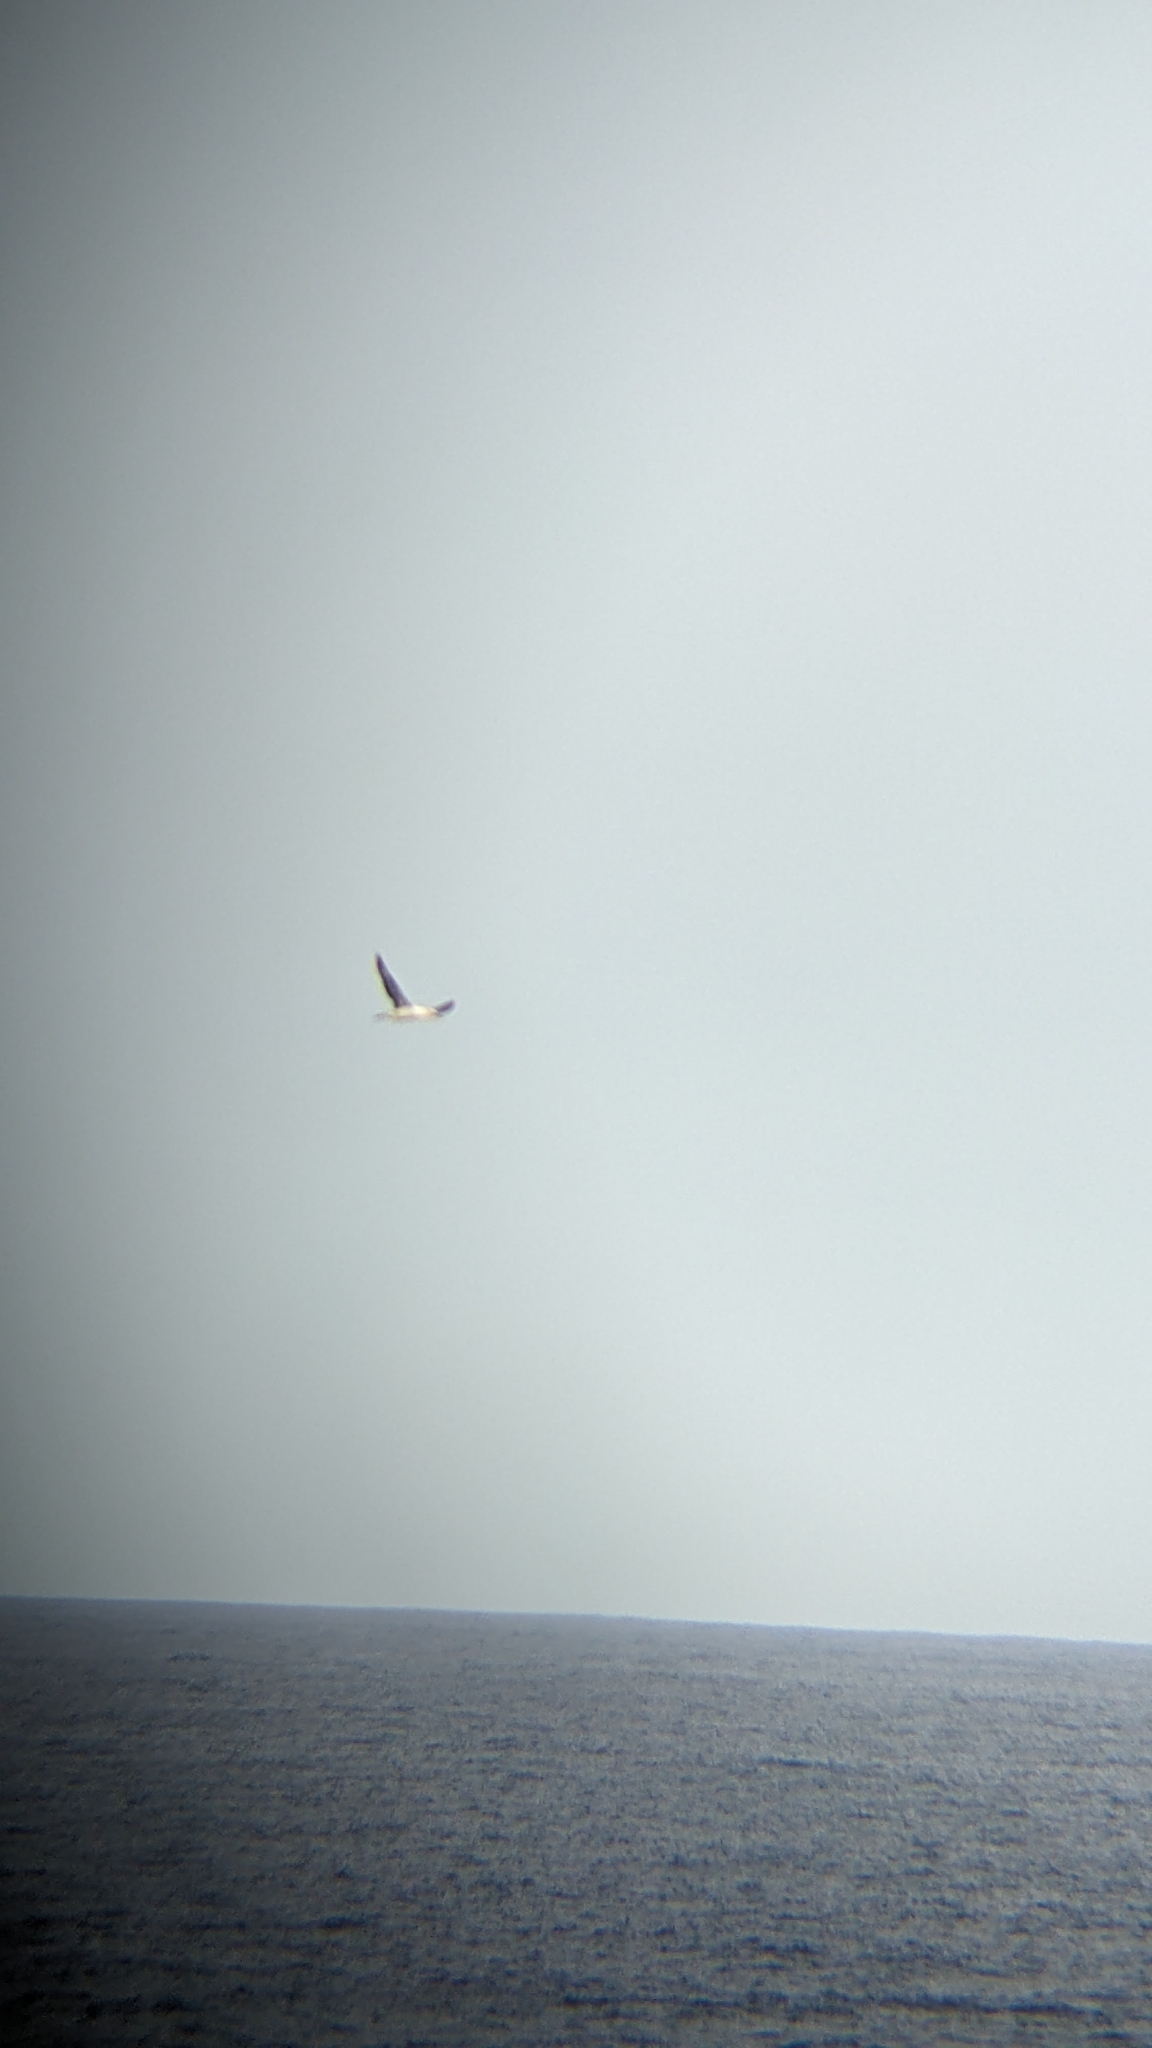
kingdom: Animalia
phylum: Chordata
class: Aves
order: Suliformes
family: Sulidae
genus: Morus
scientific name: Morus serrator
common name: Australasian gannet
